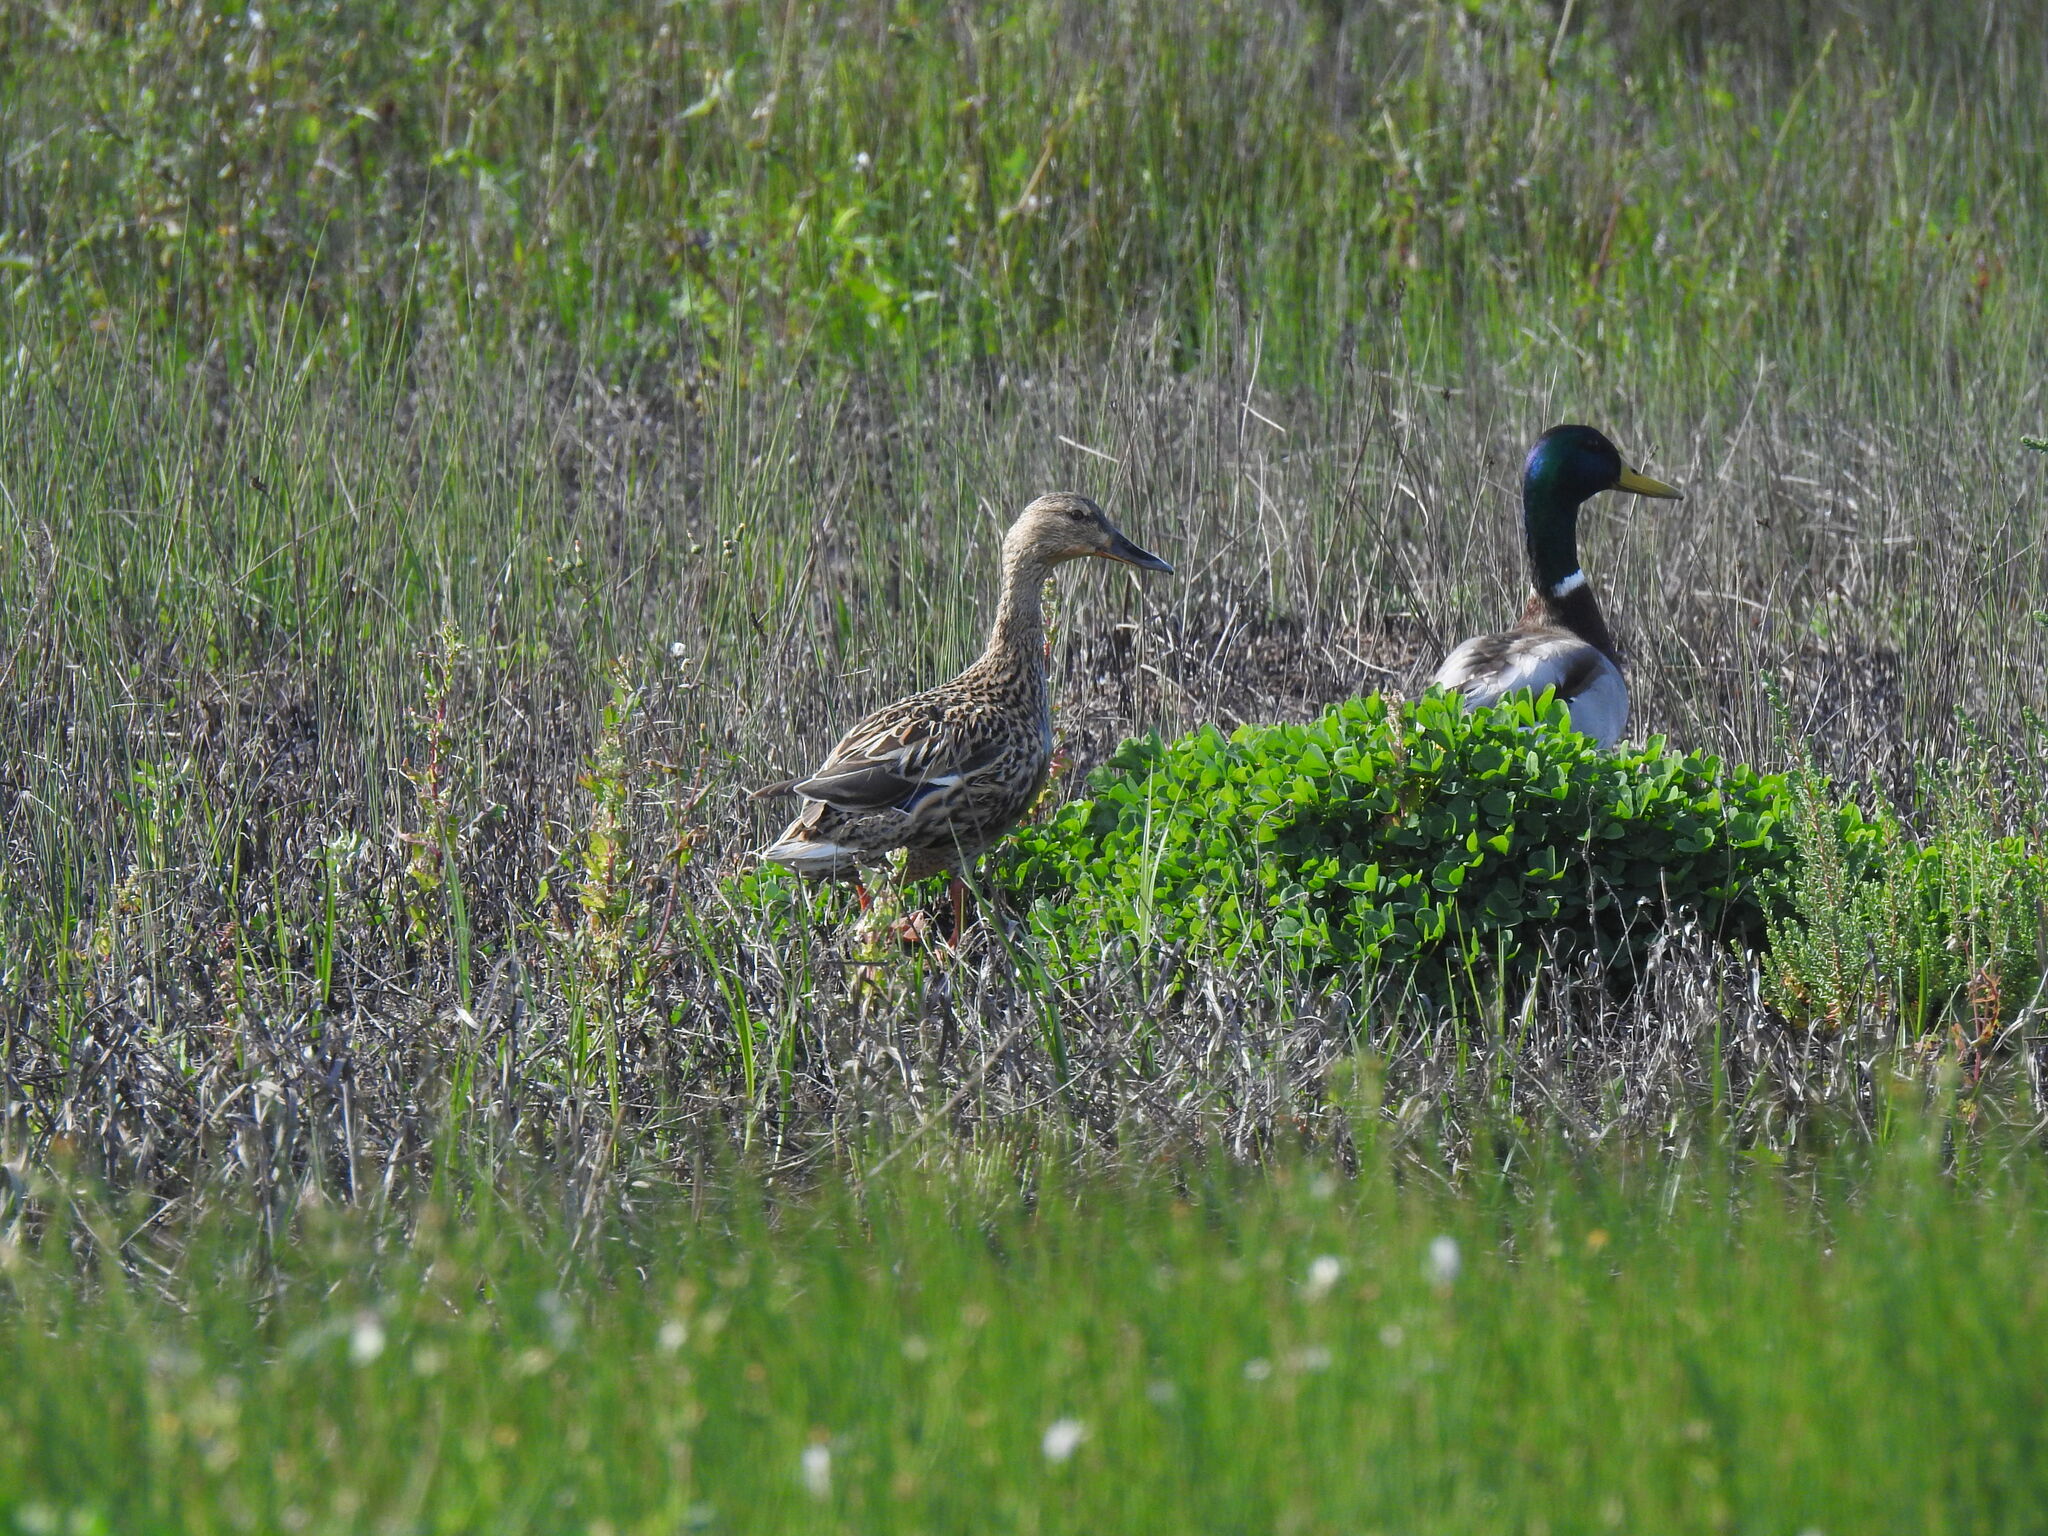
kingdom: Animalia
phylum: Chordata
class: Aves
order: Anseriformes
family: Anatidae
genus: Anas
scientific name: Anas platyrhynchos
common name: Mallard
